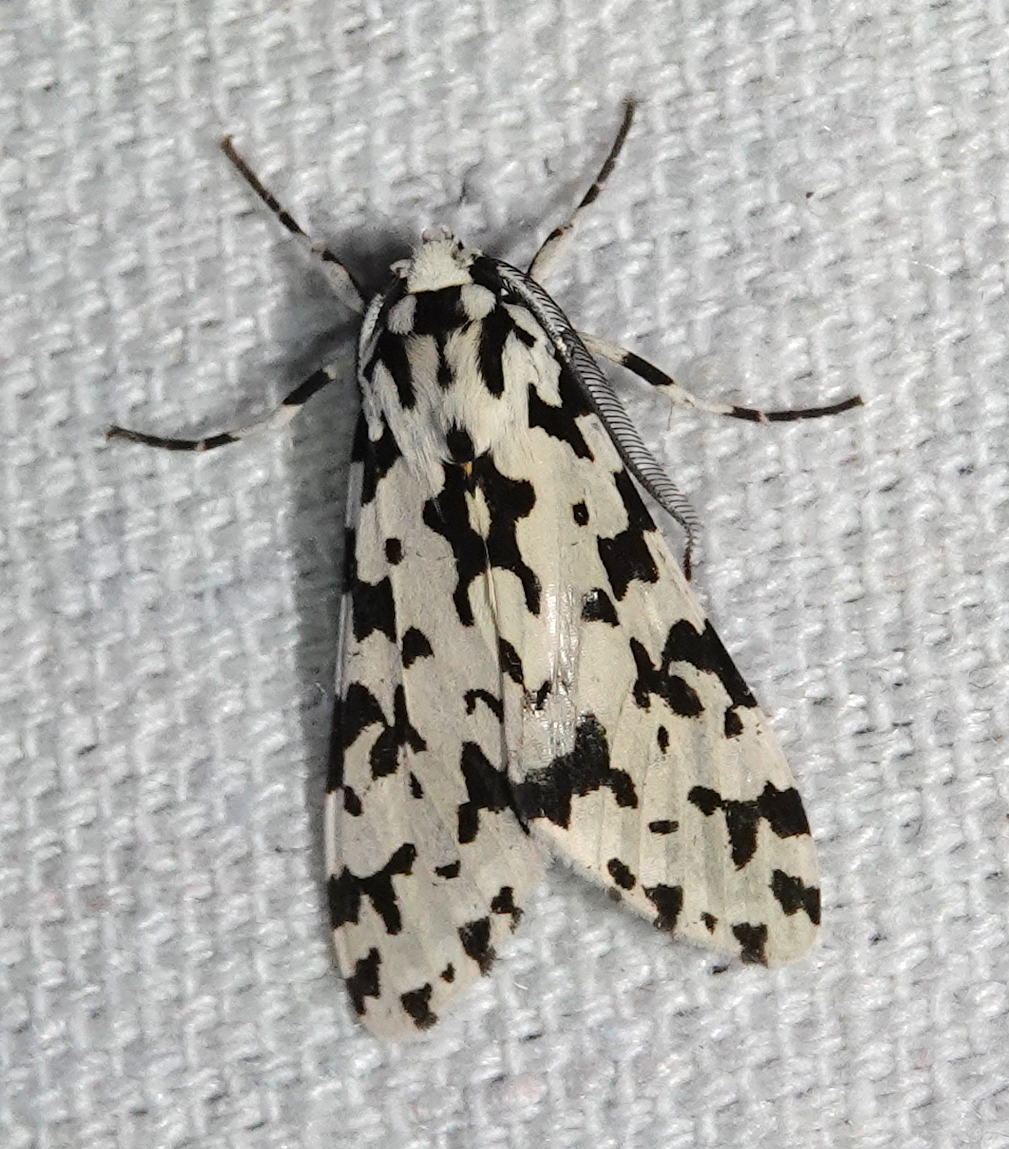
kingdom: Animalia
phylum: Arthropoda
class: Insecta
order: Lepidoptera
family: Erebidae
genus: Eucereon
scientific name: Eucereon tigrata
